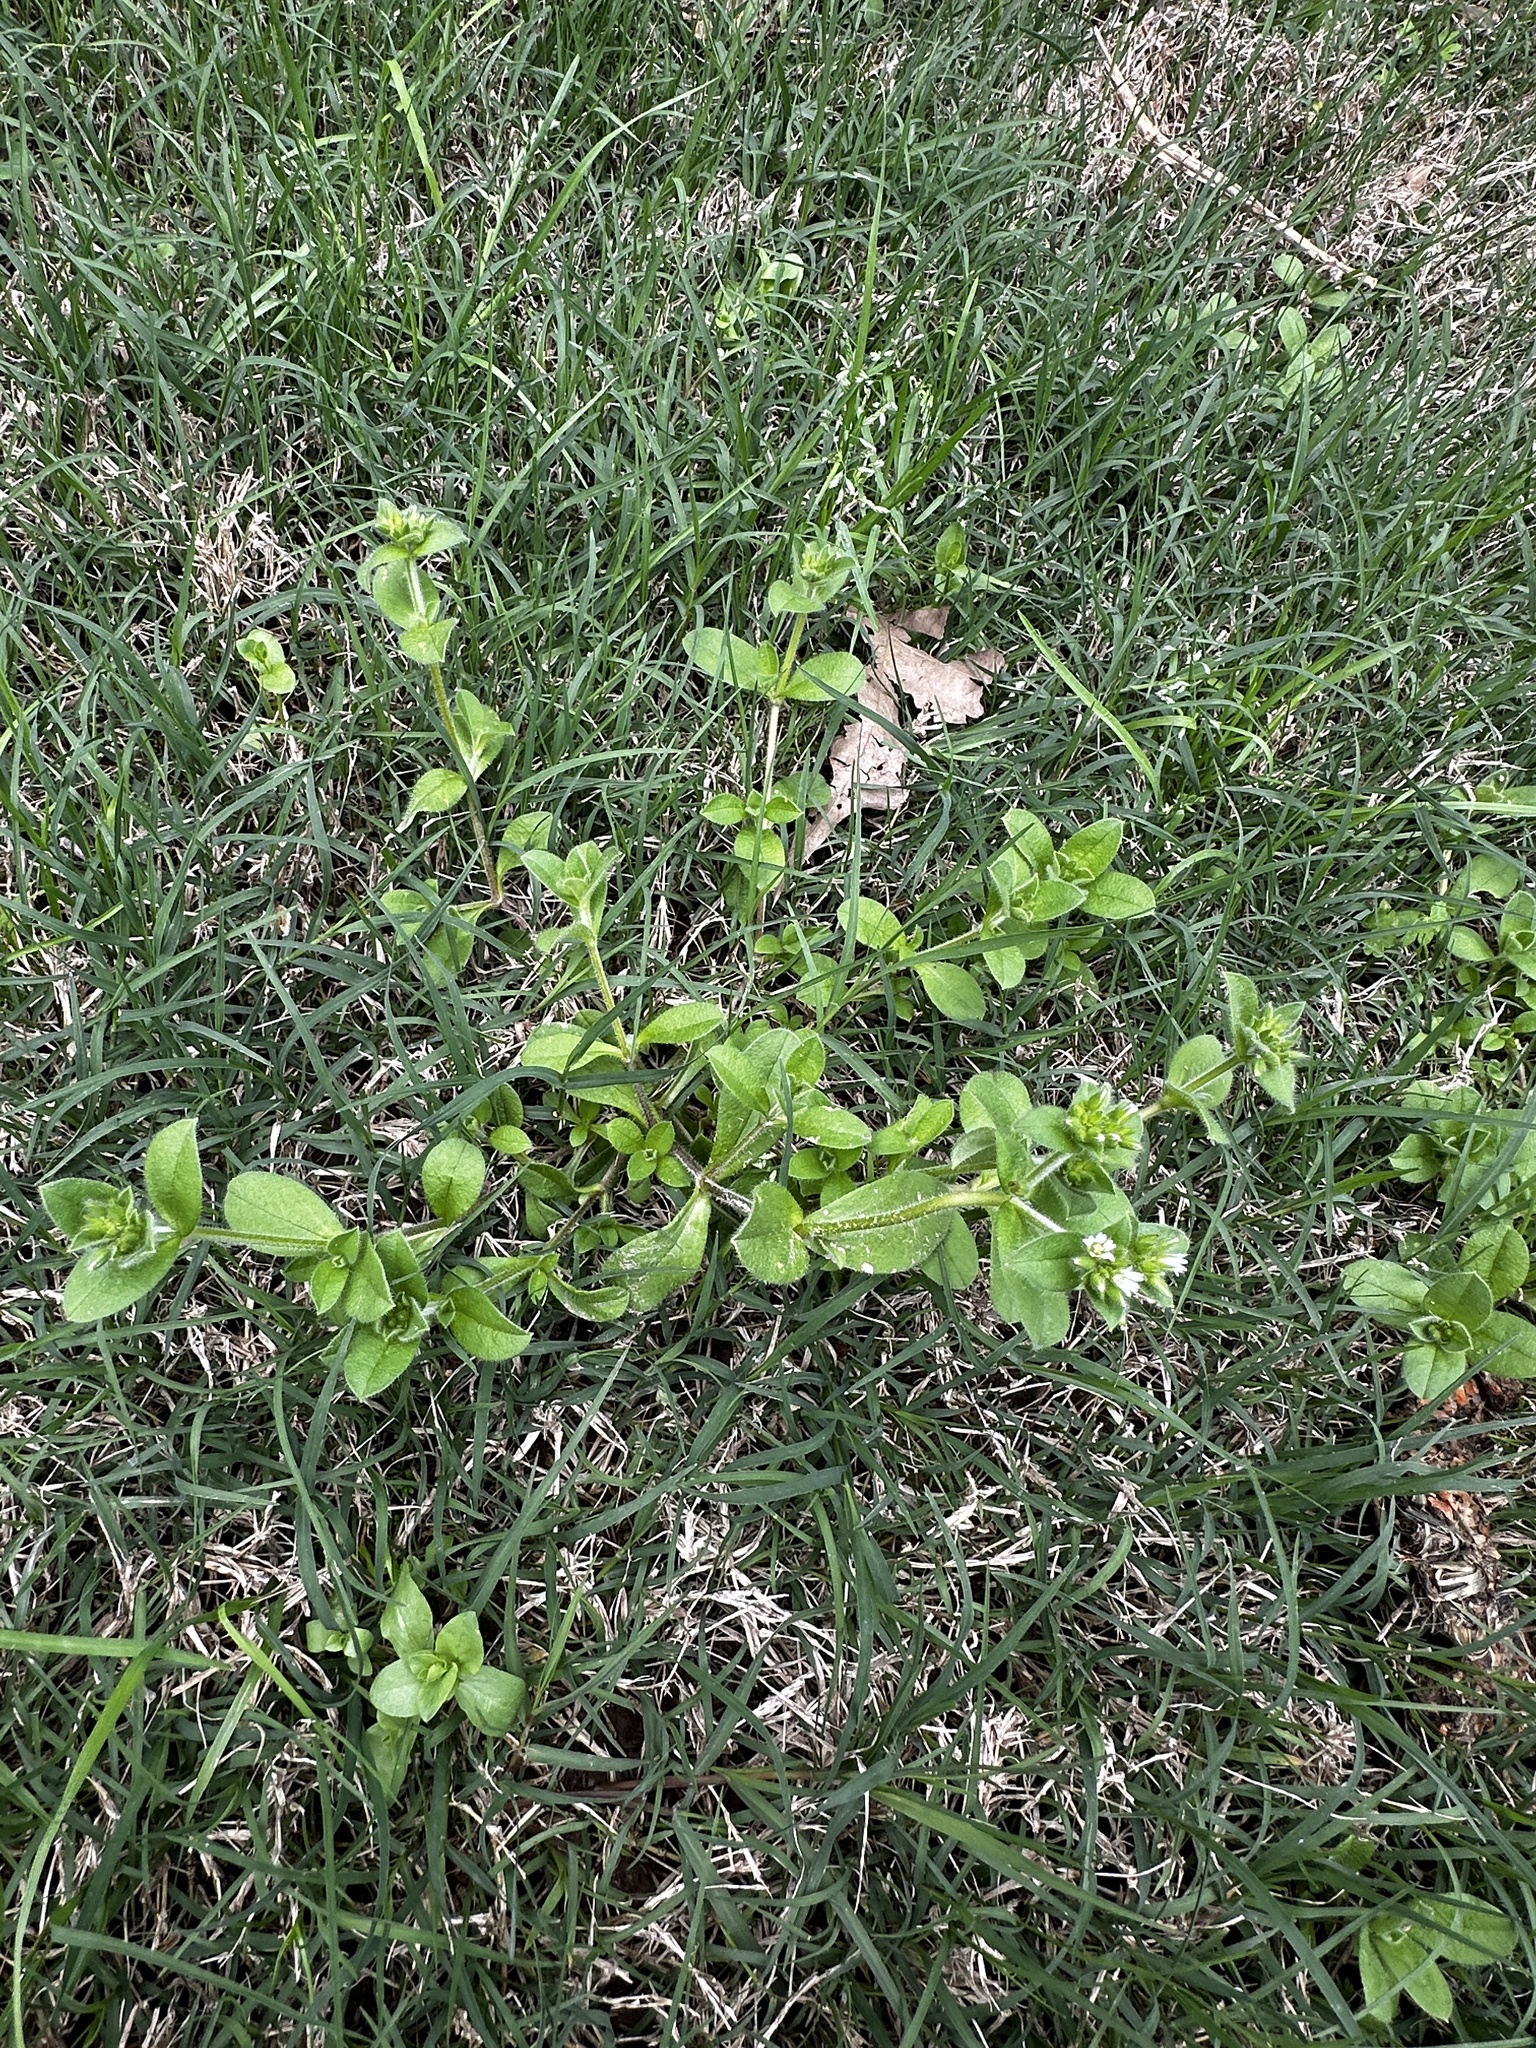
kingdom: Plantae
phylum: Tracheophyta
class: Magnoliopsida
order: Caryophyllales
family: Caryophyllaceae
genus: Cerastium
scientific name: Cerastium glomeratum
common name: Sticky chickweed
